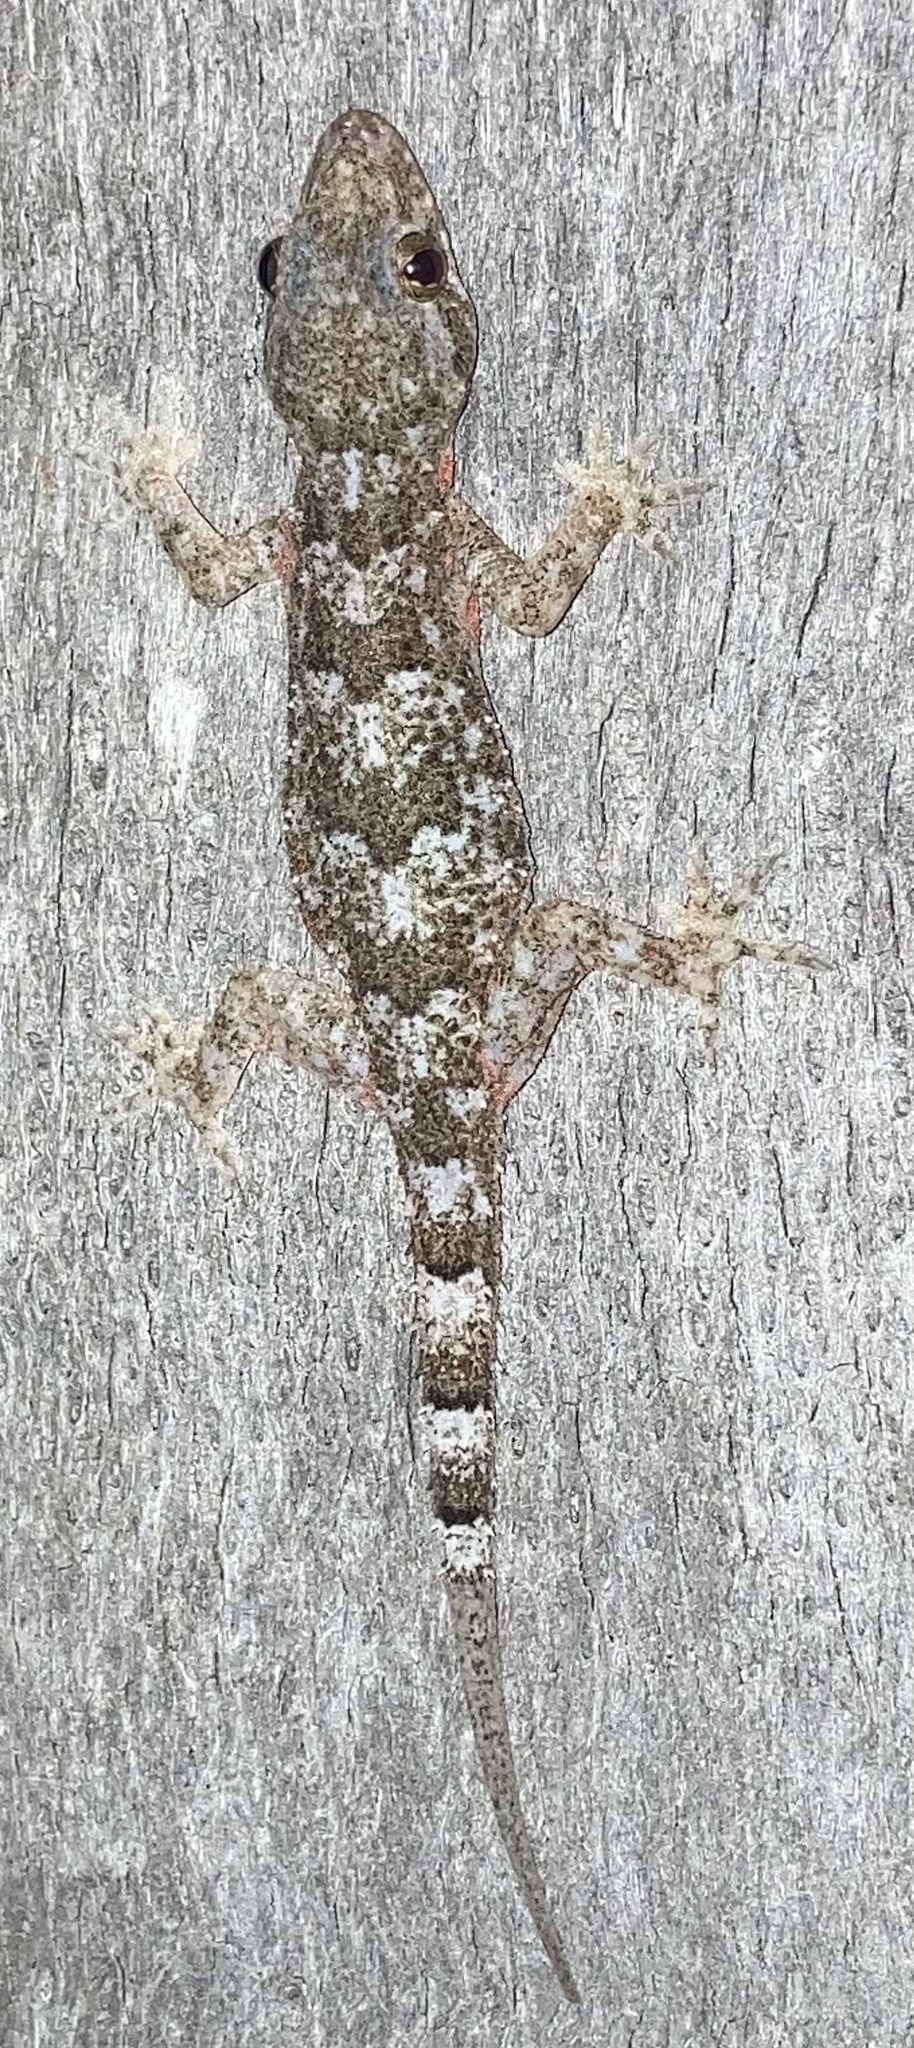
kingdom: Animalia
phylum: Chordata
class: Squamata
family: Gekkonidae
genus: Hemidactylus
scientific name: Hemidactylus mabouia
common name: House gecko
